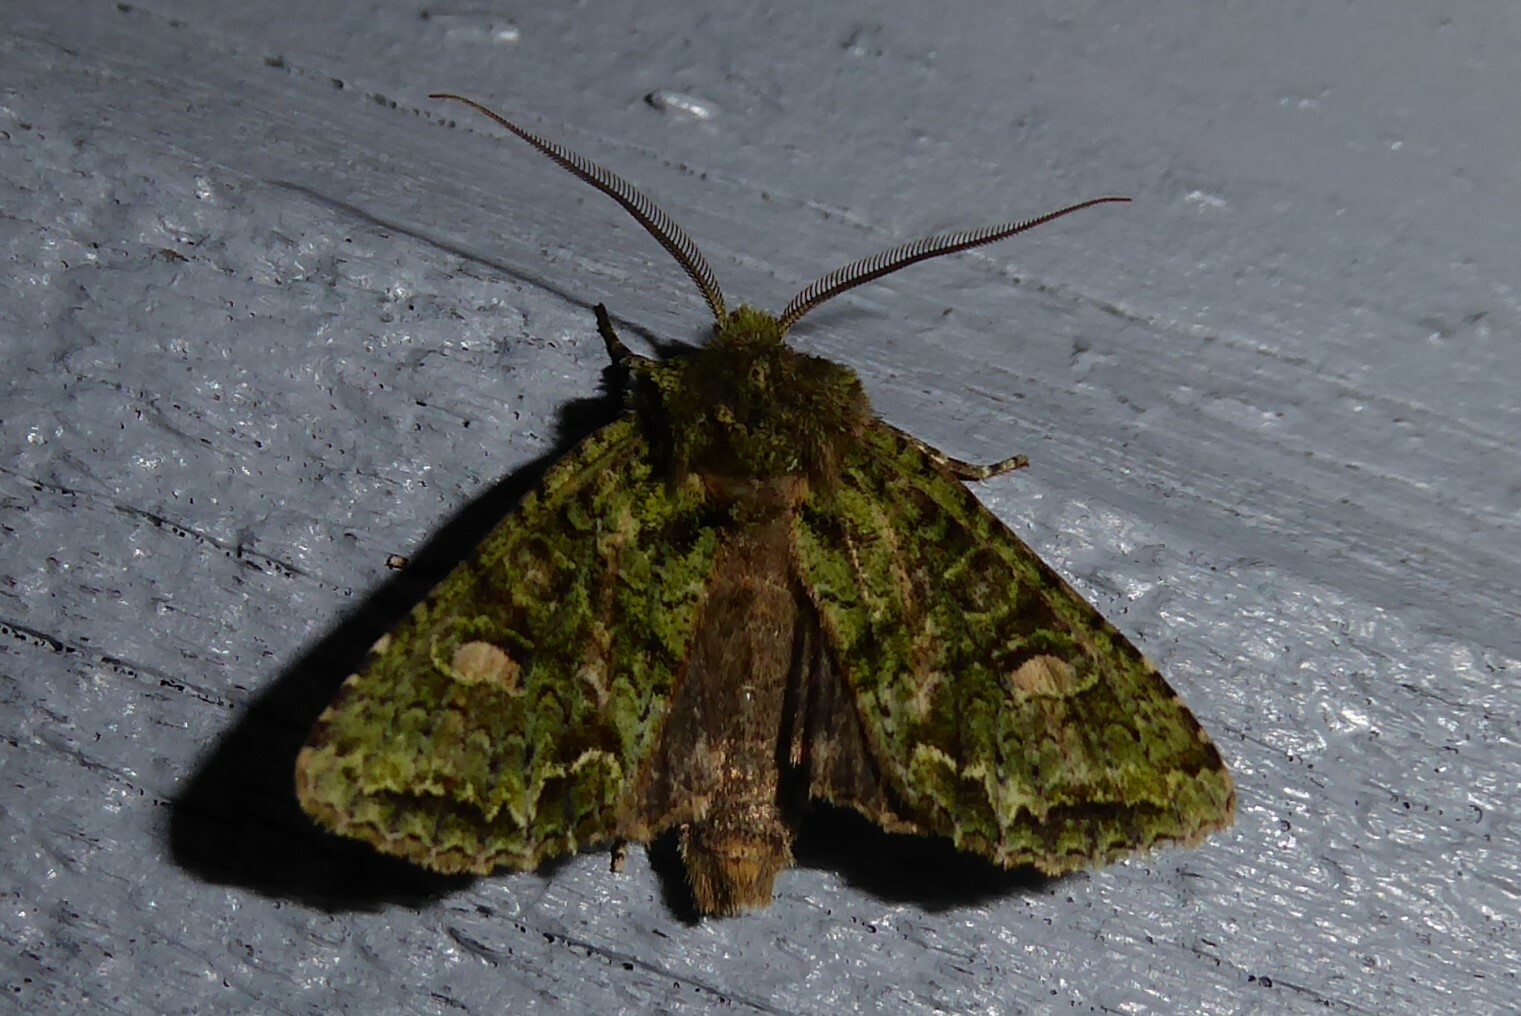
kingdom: Animalia
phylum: Arthropoda
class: Insecta
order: Lepidoptera
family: Noctuidae
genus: Ichneutica
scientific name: Ichneutica
